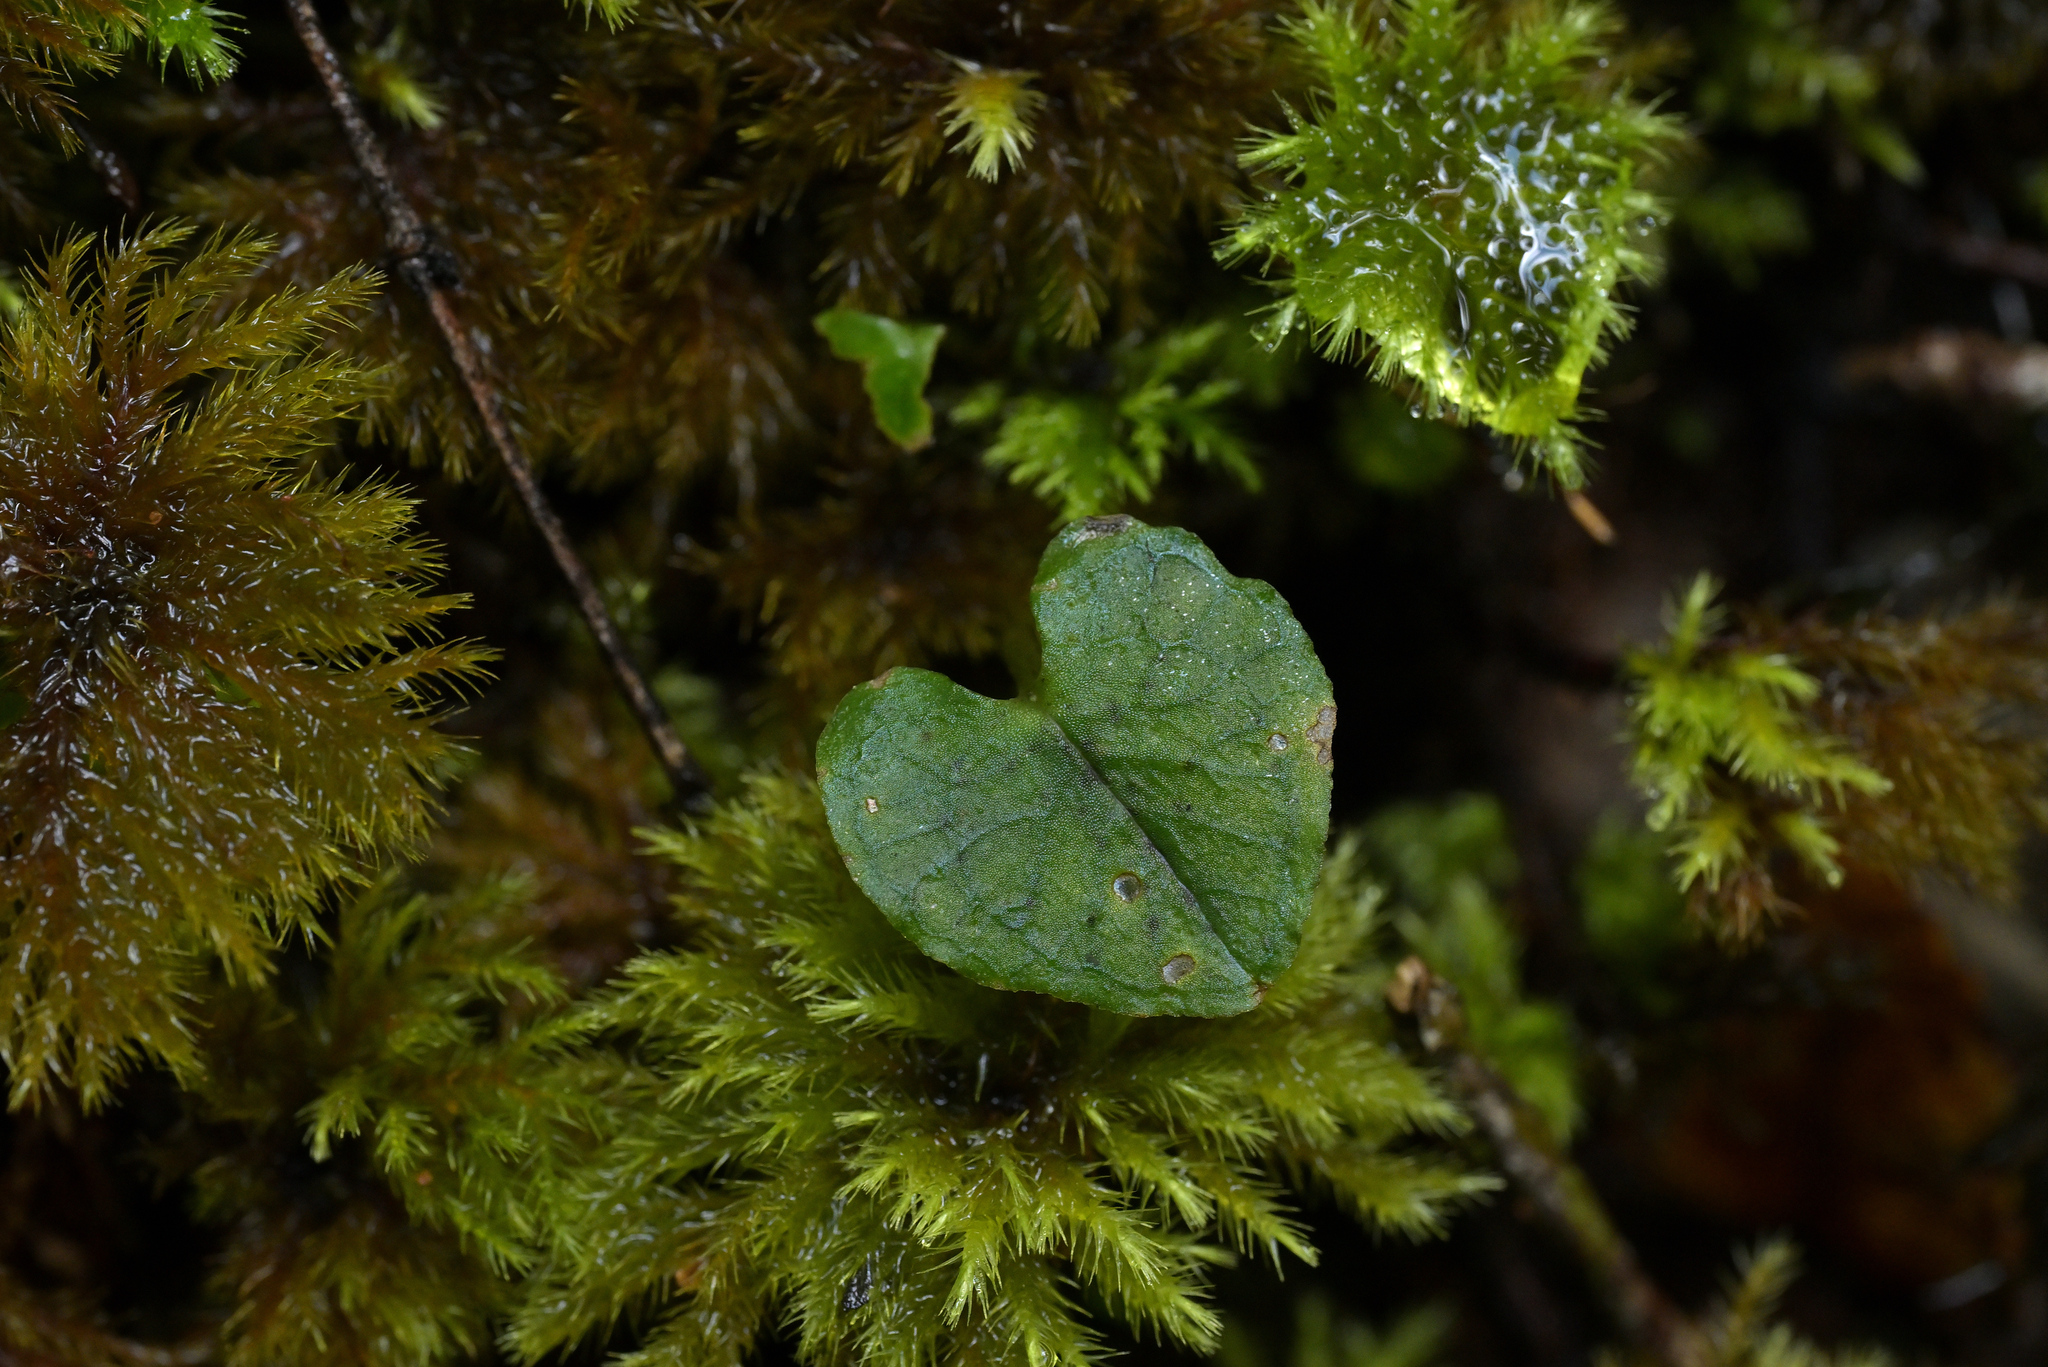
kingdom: Plantae
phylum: Tracheophyta
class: Liliopsida
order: Asparagales
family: Orchidaceae
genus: Corybas
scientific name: Corybas acuminatus
